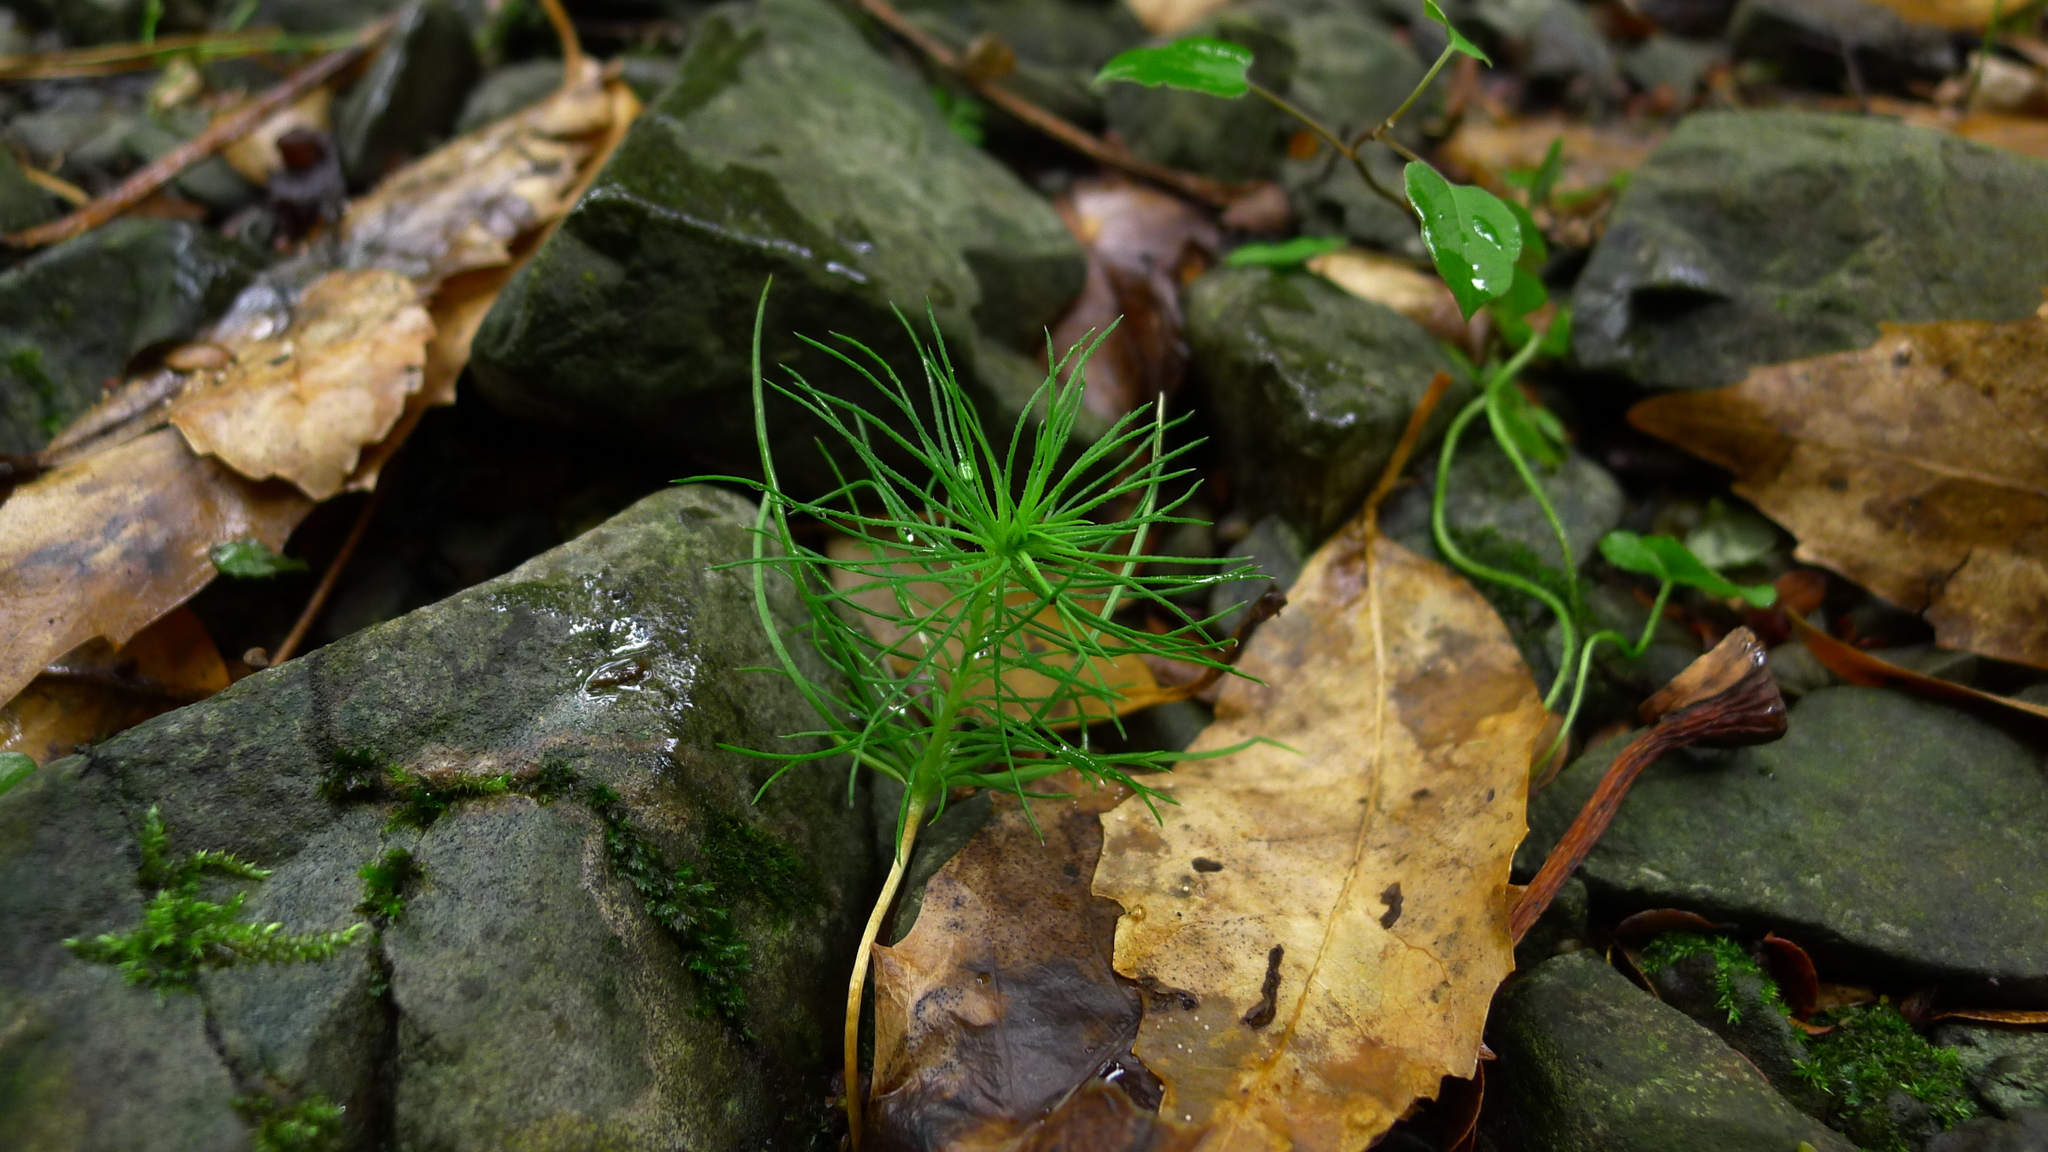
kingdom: Plantae
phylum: Tracheophyta
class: Pinopsida
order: Pinales
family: Pinaceae
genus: Pinus
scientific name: Pinus radiata
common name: Monterey pine
